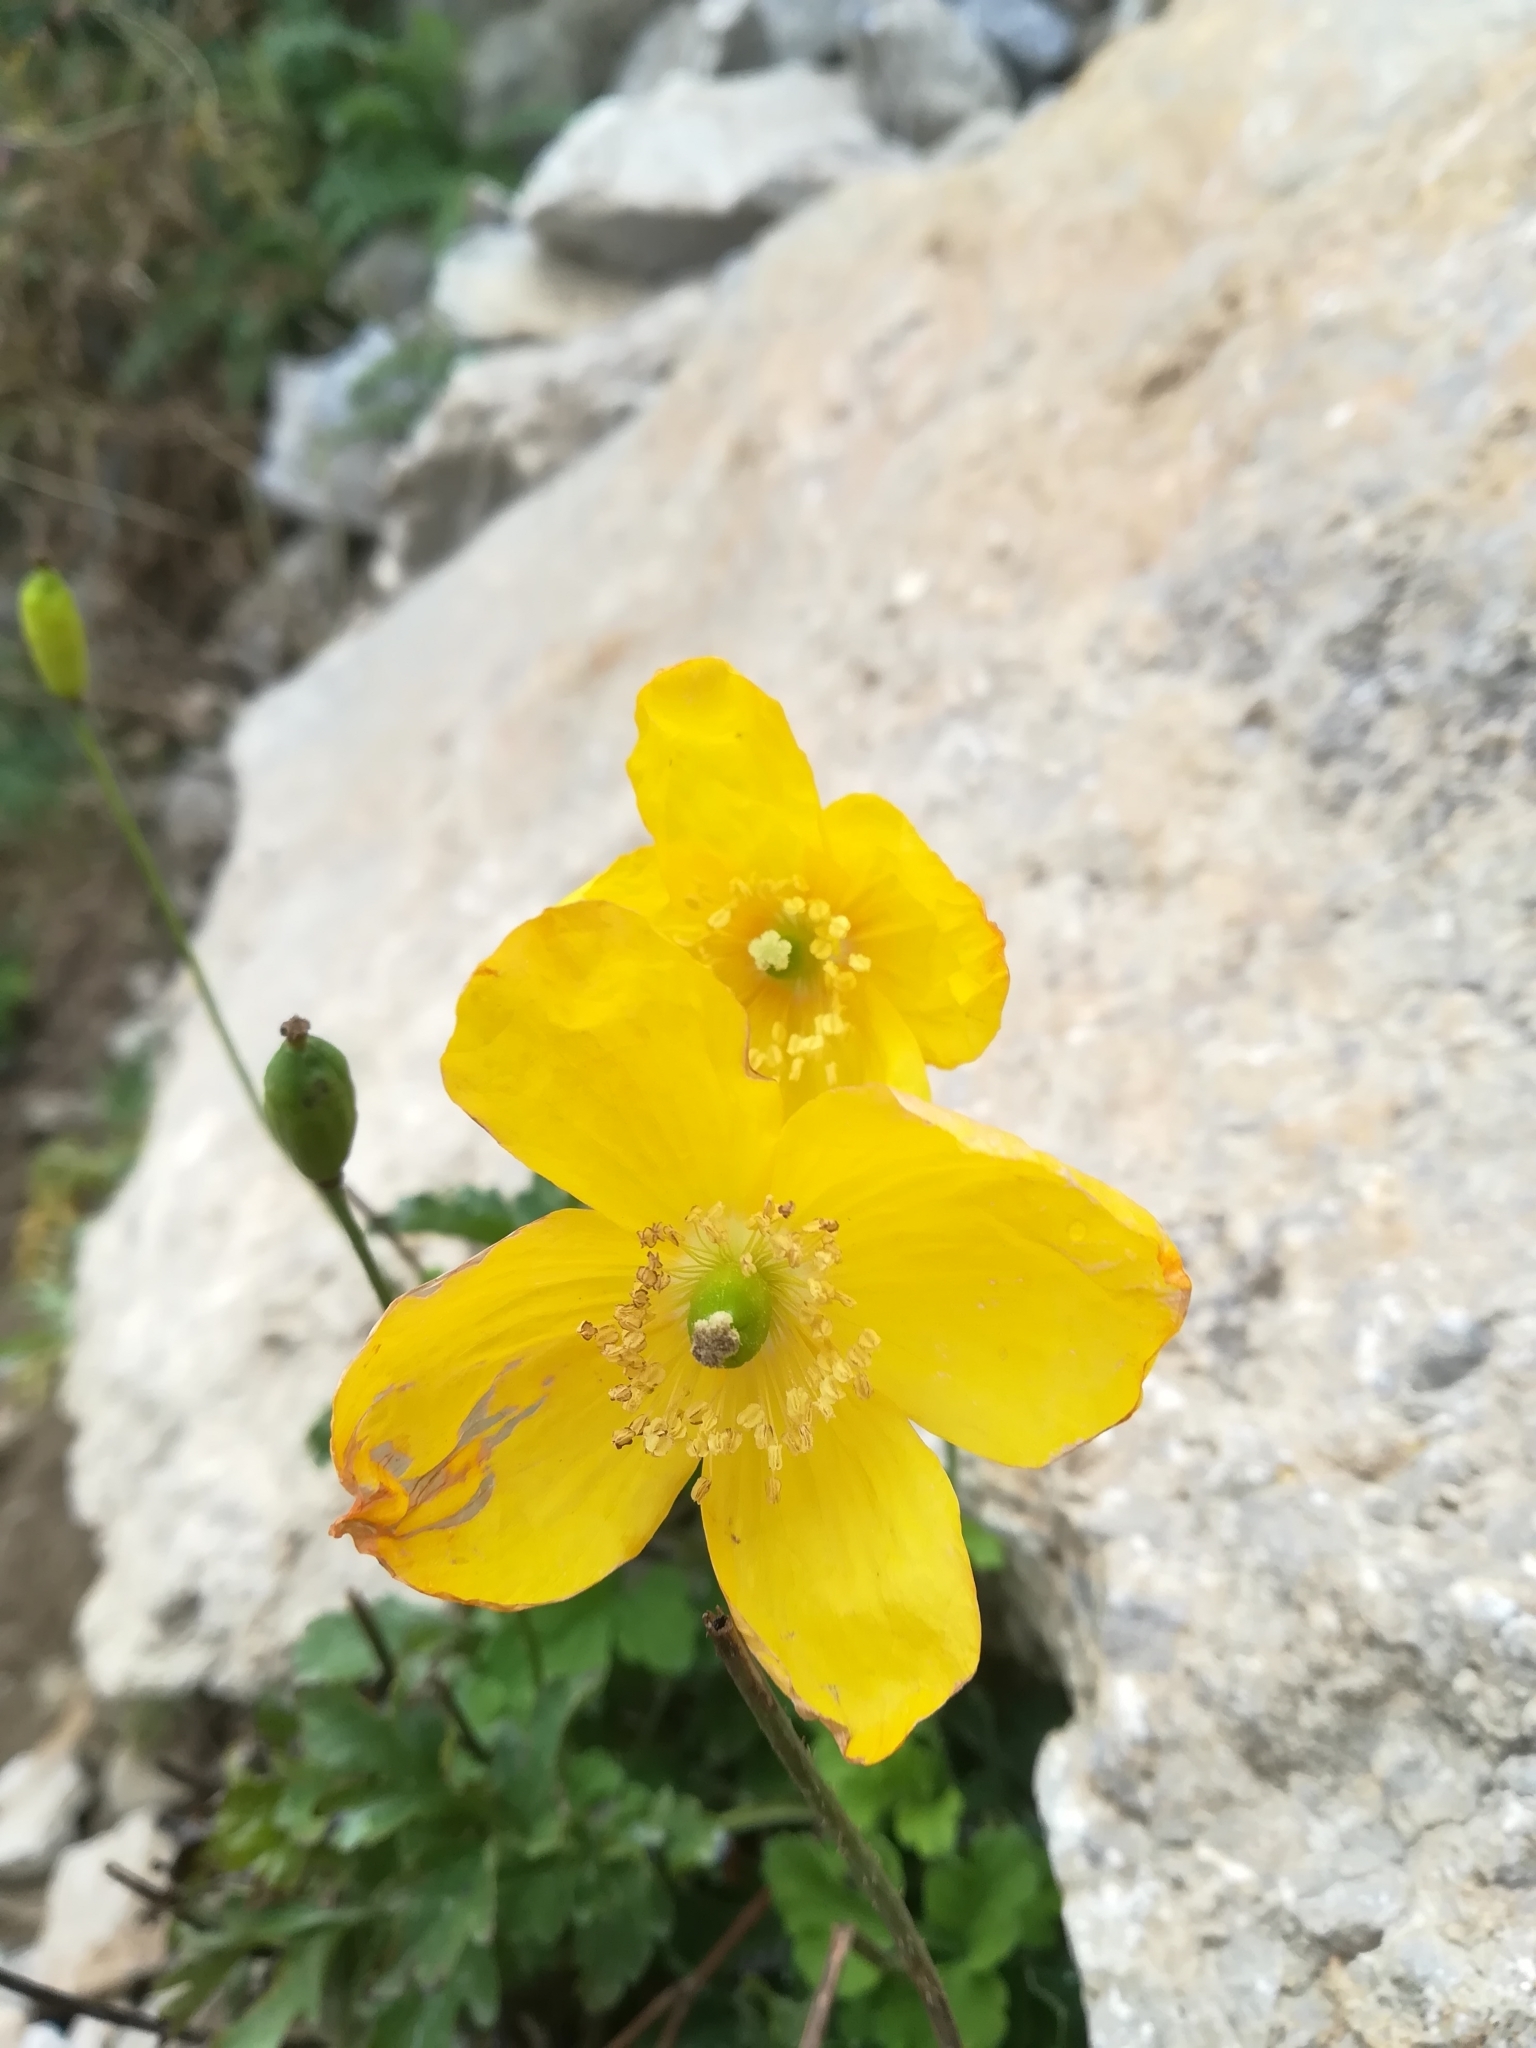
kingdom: Plantae
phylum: Tracheophyta
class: Magnoliopsida
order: Ranunculales
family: Papaveraceae
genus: Papaver
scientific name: Papaver cambricum
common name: Poppy
